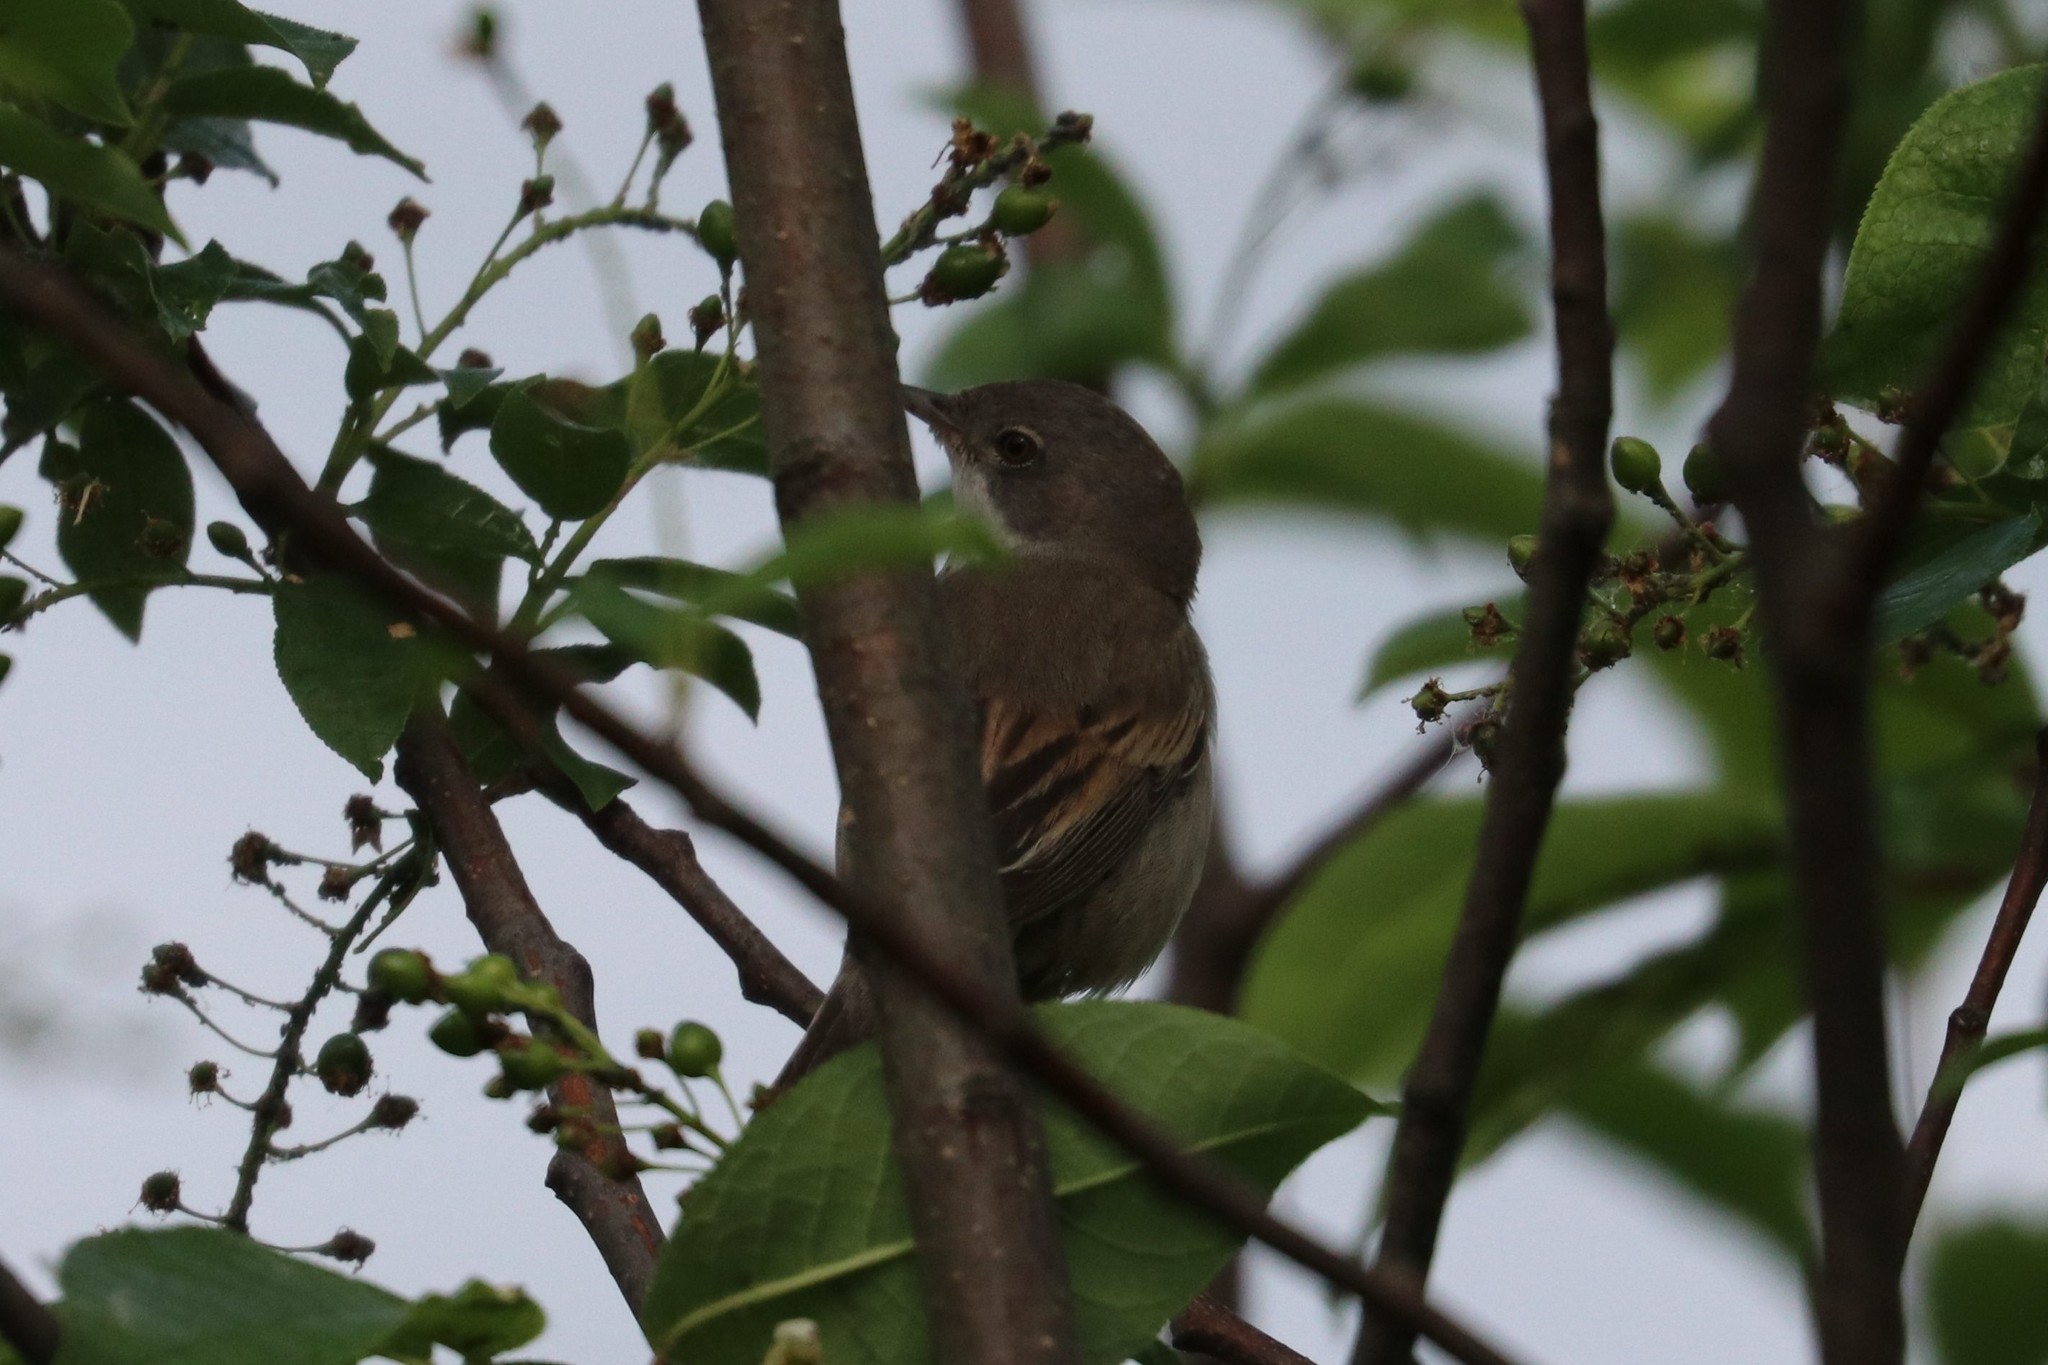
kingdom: Animalia
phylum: Chordata
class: Aves
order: Passeriformes
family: Sylviidae
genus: Sylvia
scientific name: Sylvia communis
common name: Common whitethroat
